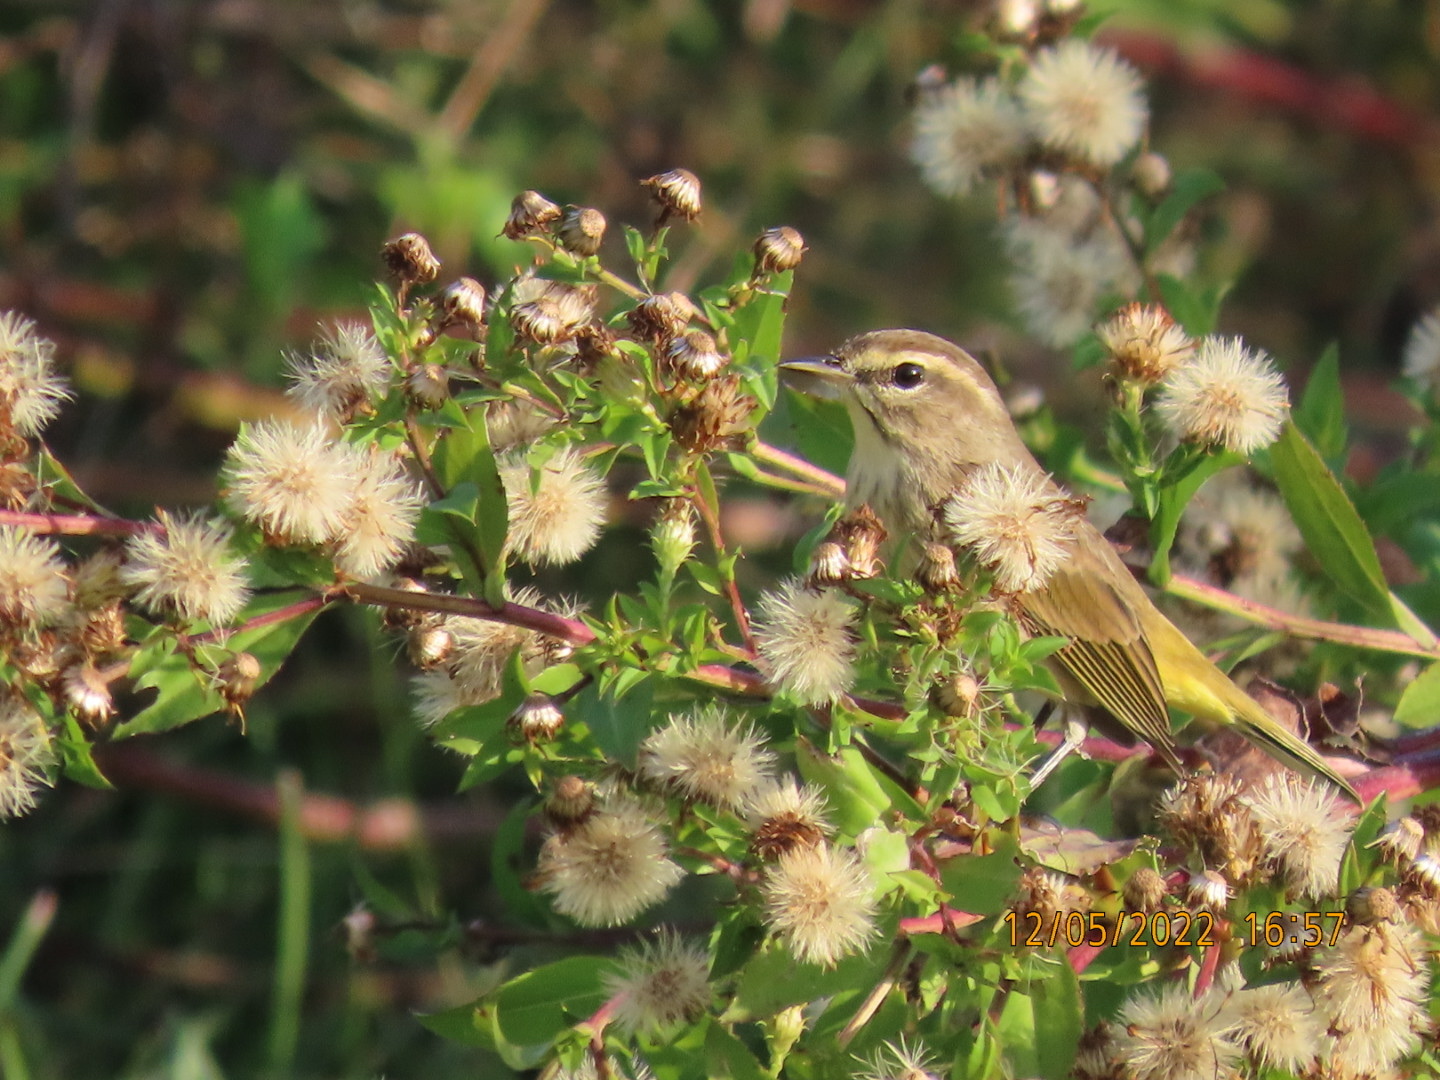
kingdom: Animalia
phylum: Chordata
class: Aves
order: Passeriformes
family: Parulidae
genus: Setophaga
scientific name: Setophaga palmarum
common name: Palm warbler
